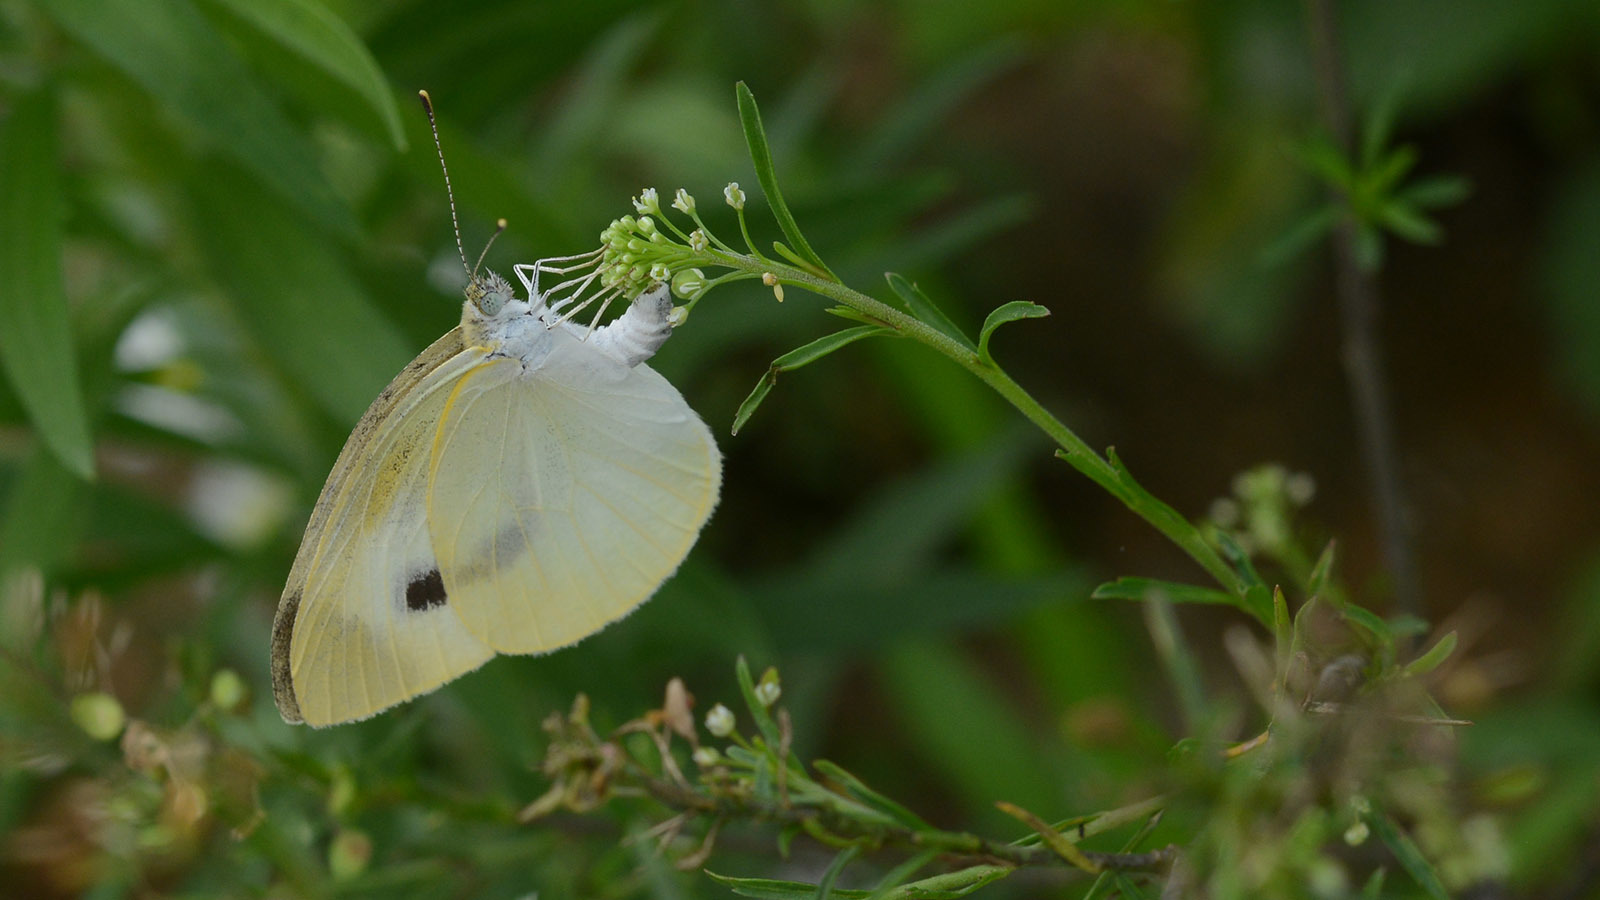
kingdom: Animalia
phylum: Arthropoda
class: Insecta
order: Lepidoptera
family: Pieridae
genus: Pieris
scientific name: Pieris rapae
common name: Small white
